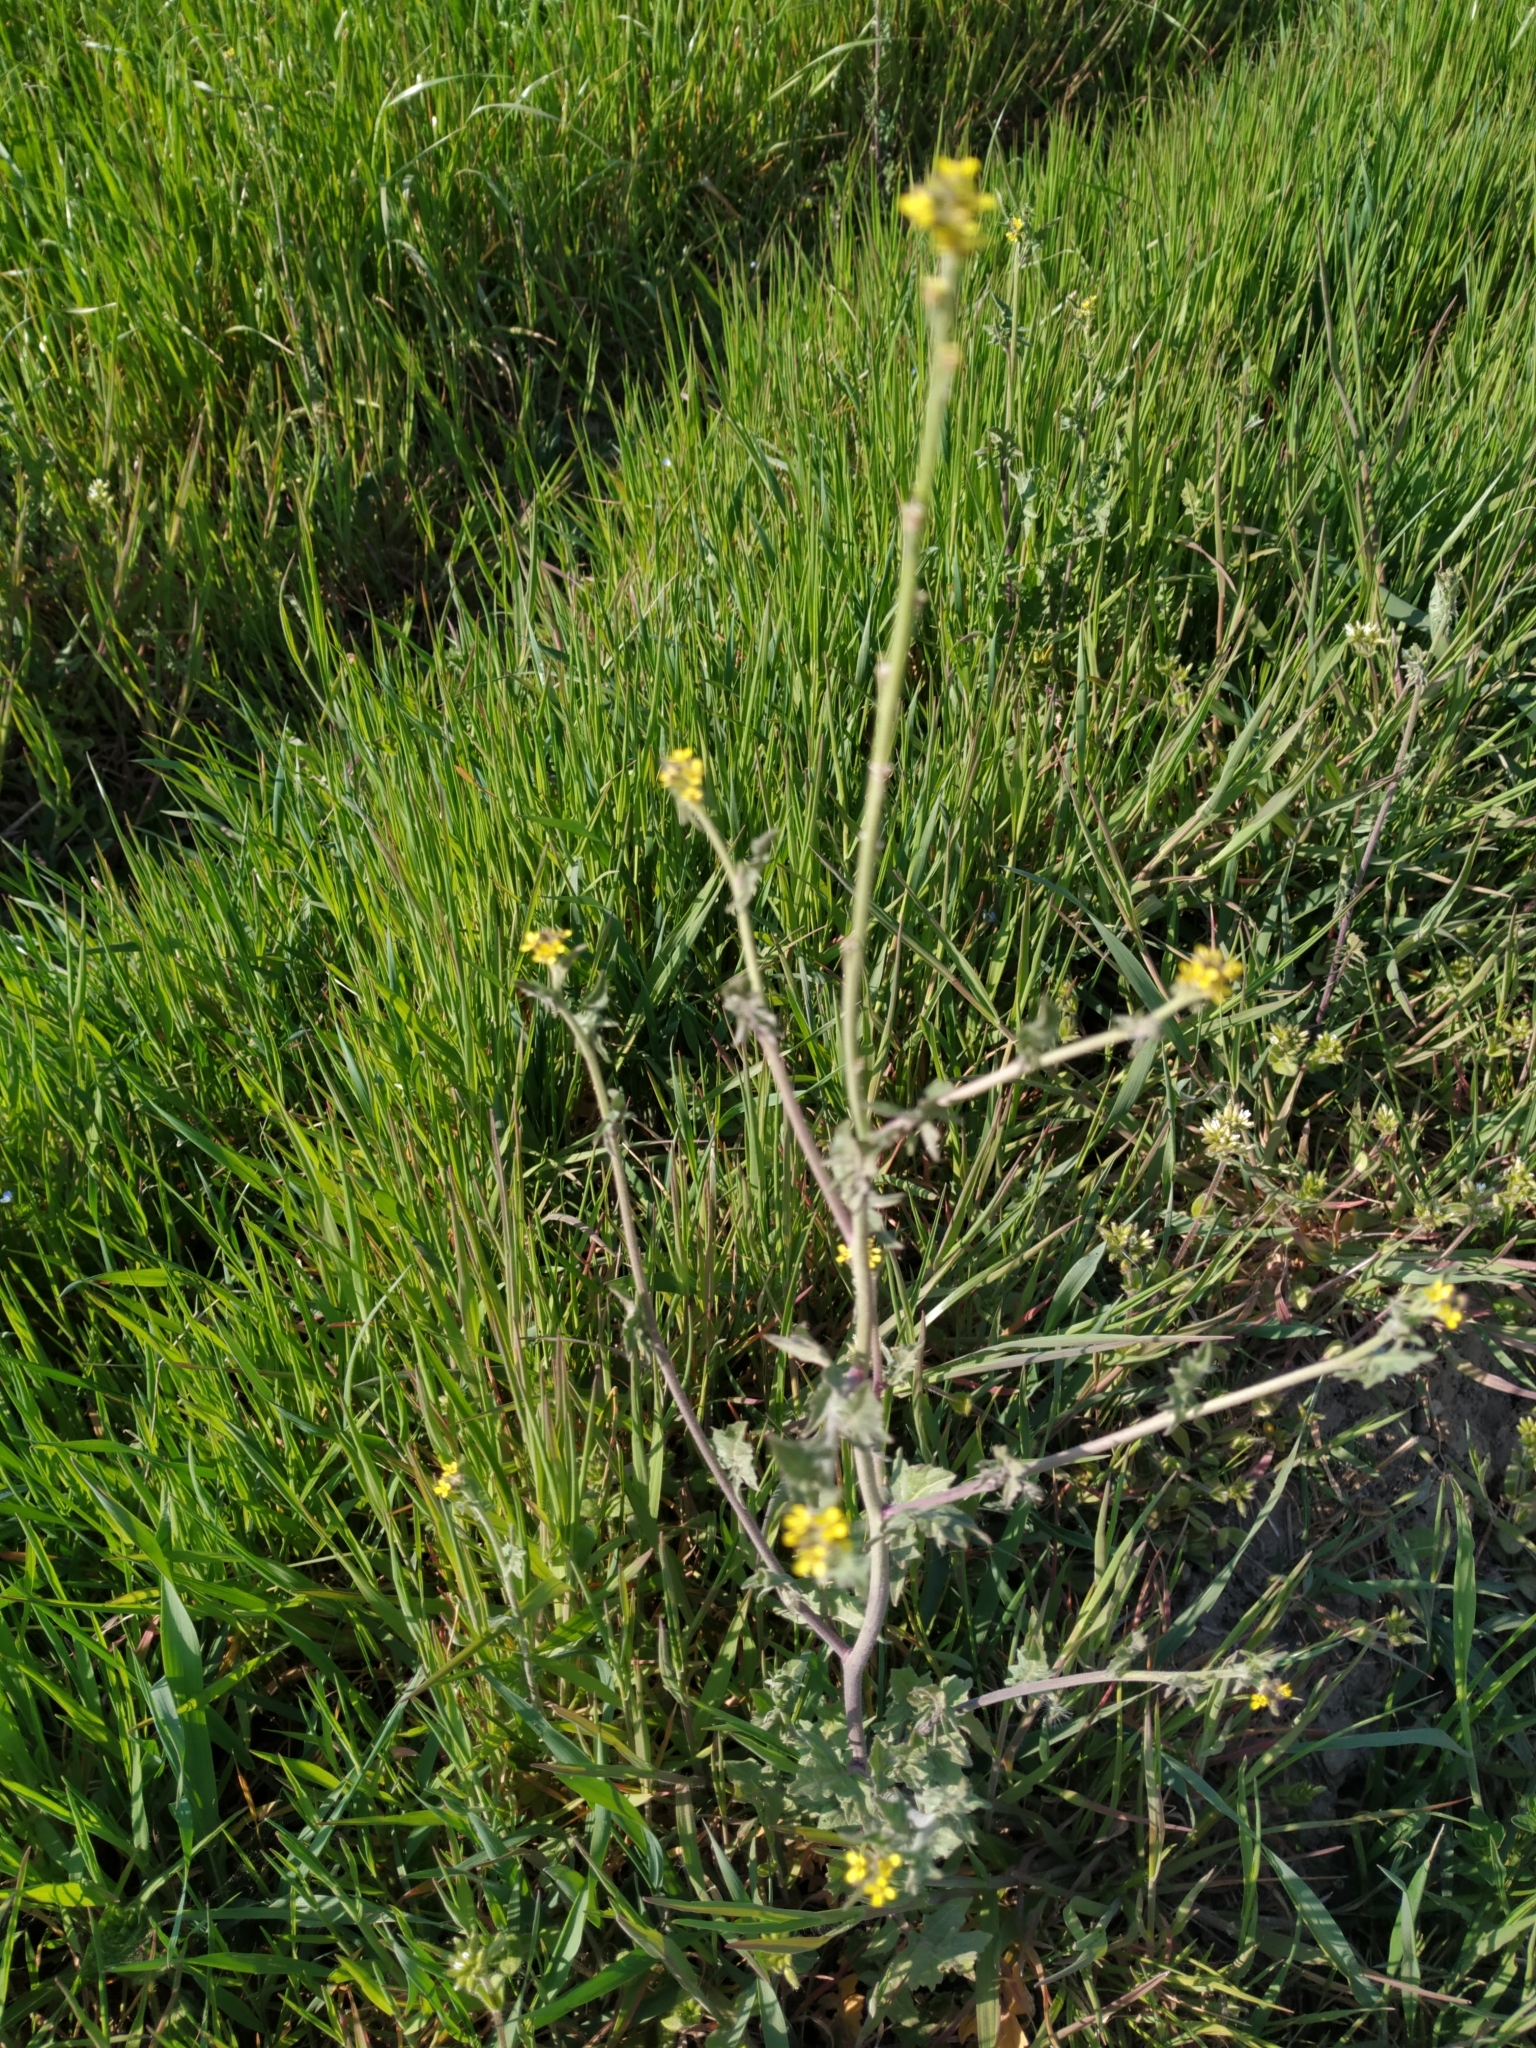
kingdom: Plantae
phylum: Tracheophyta
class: Magnoliopsida
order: Brassicales
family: Brassicaceae
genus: Sisymbrium
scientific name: Sisymbrium officinale
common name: Hedge mustard
